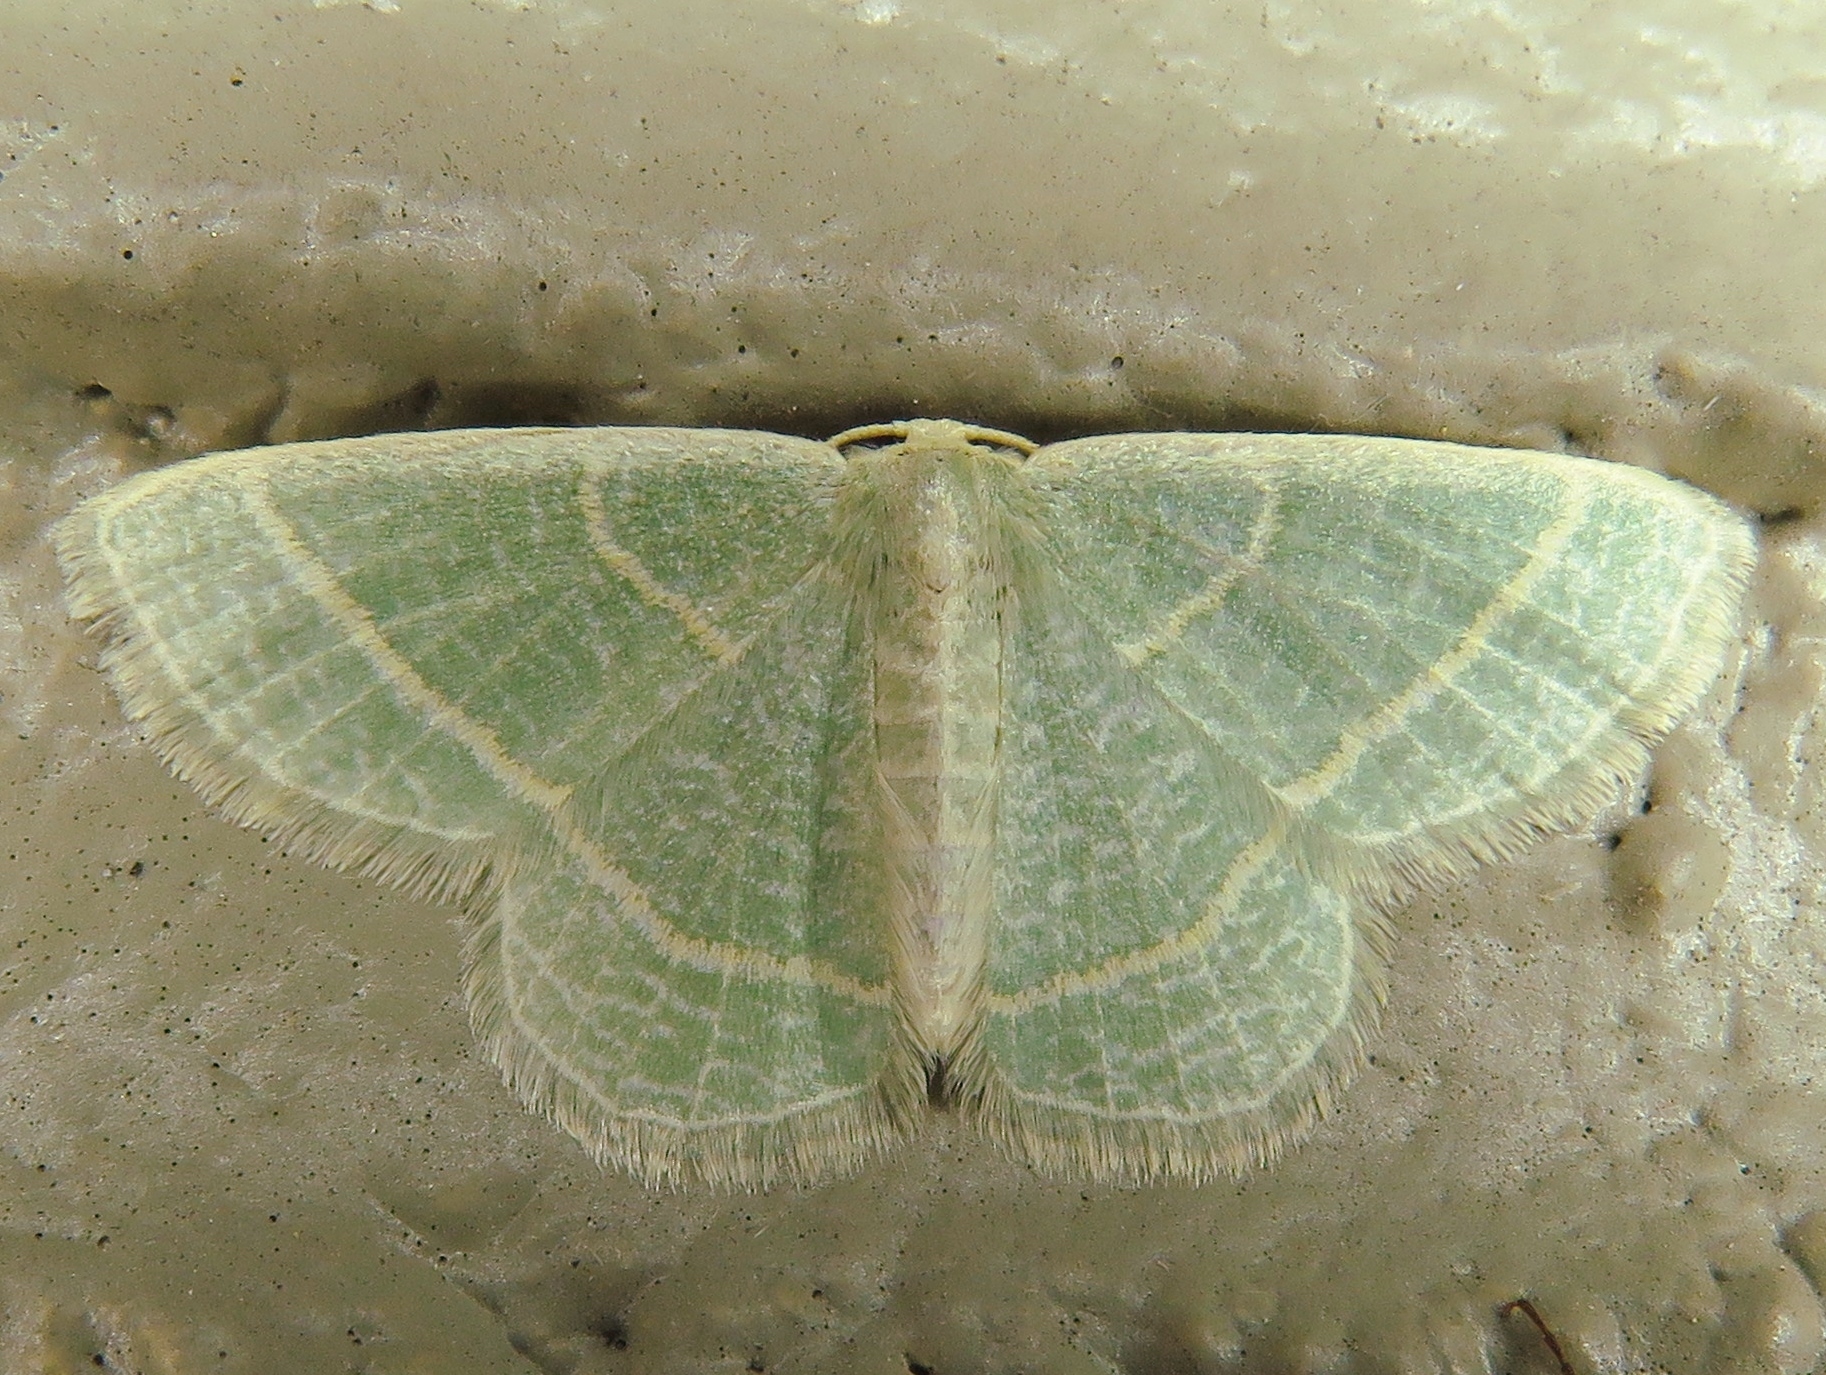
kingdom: Animalia
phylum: Arthropoda
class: Insecta
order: Lepidoptera
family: Geometridae
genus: Chlorochlamys
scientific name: Chlorochlamys chloroleucaria
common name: Blackberry looper
